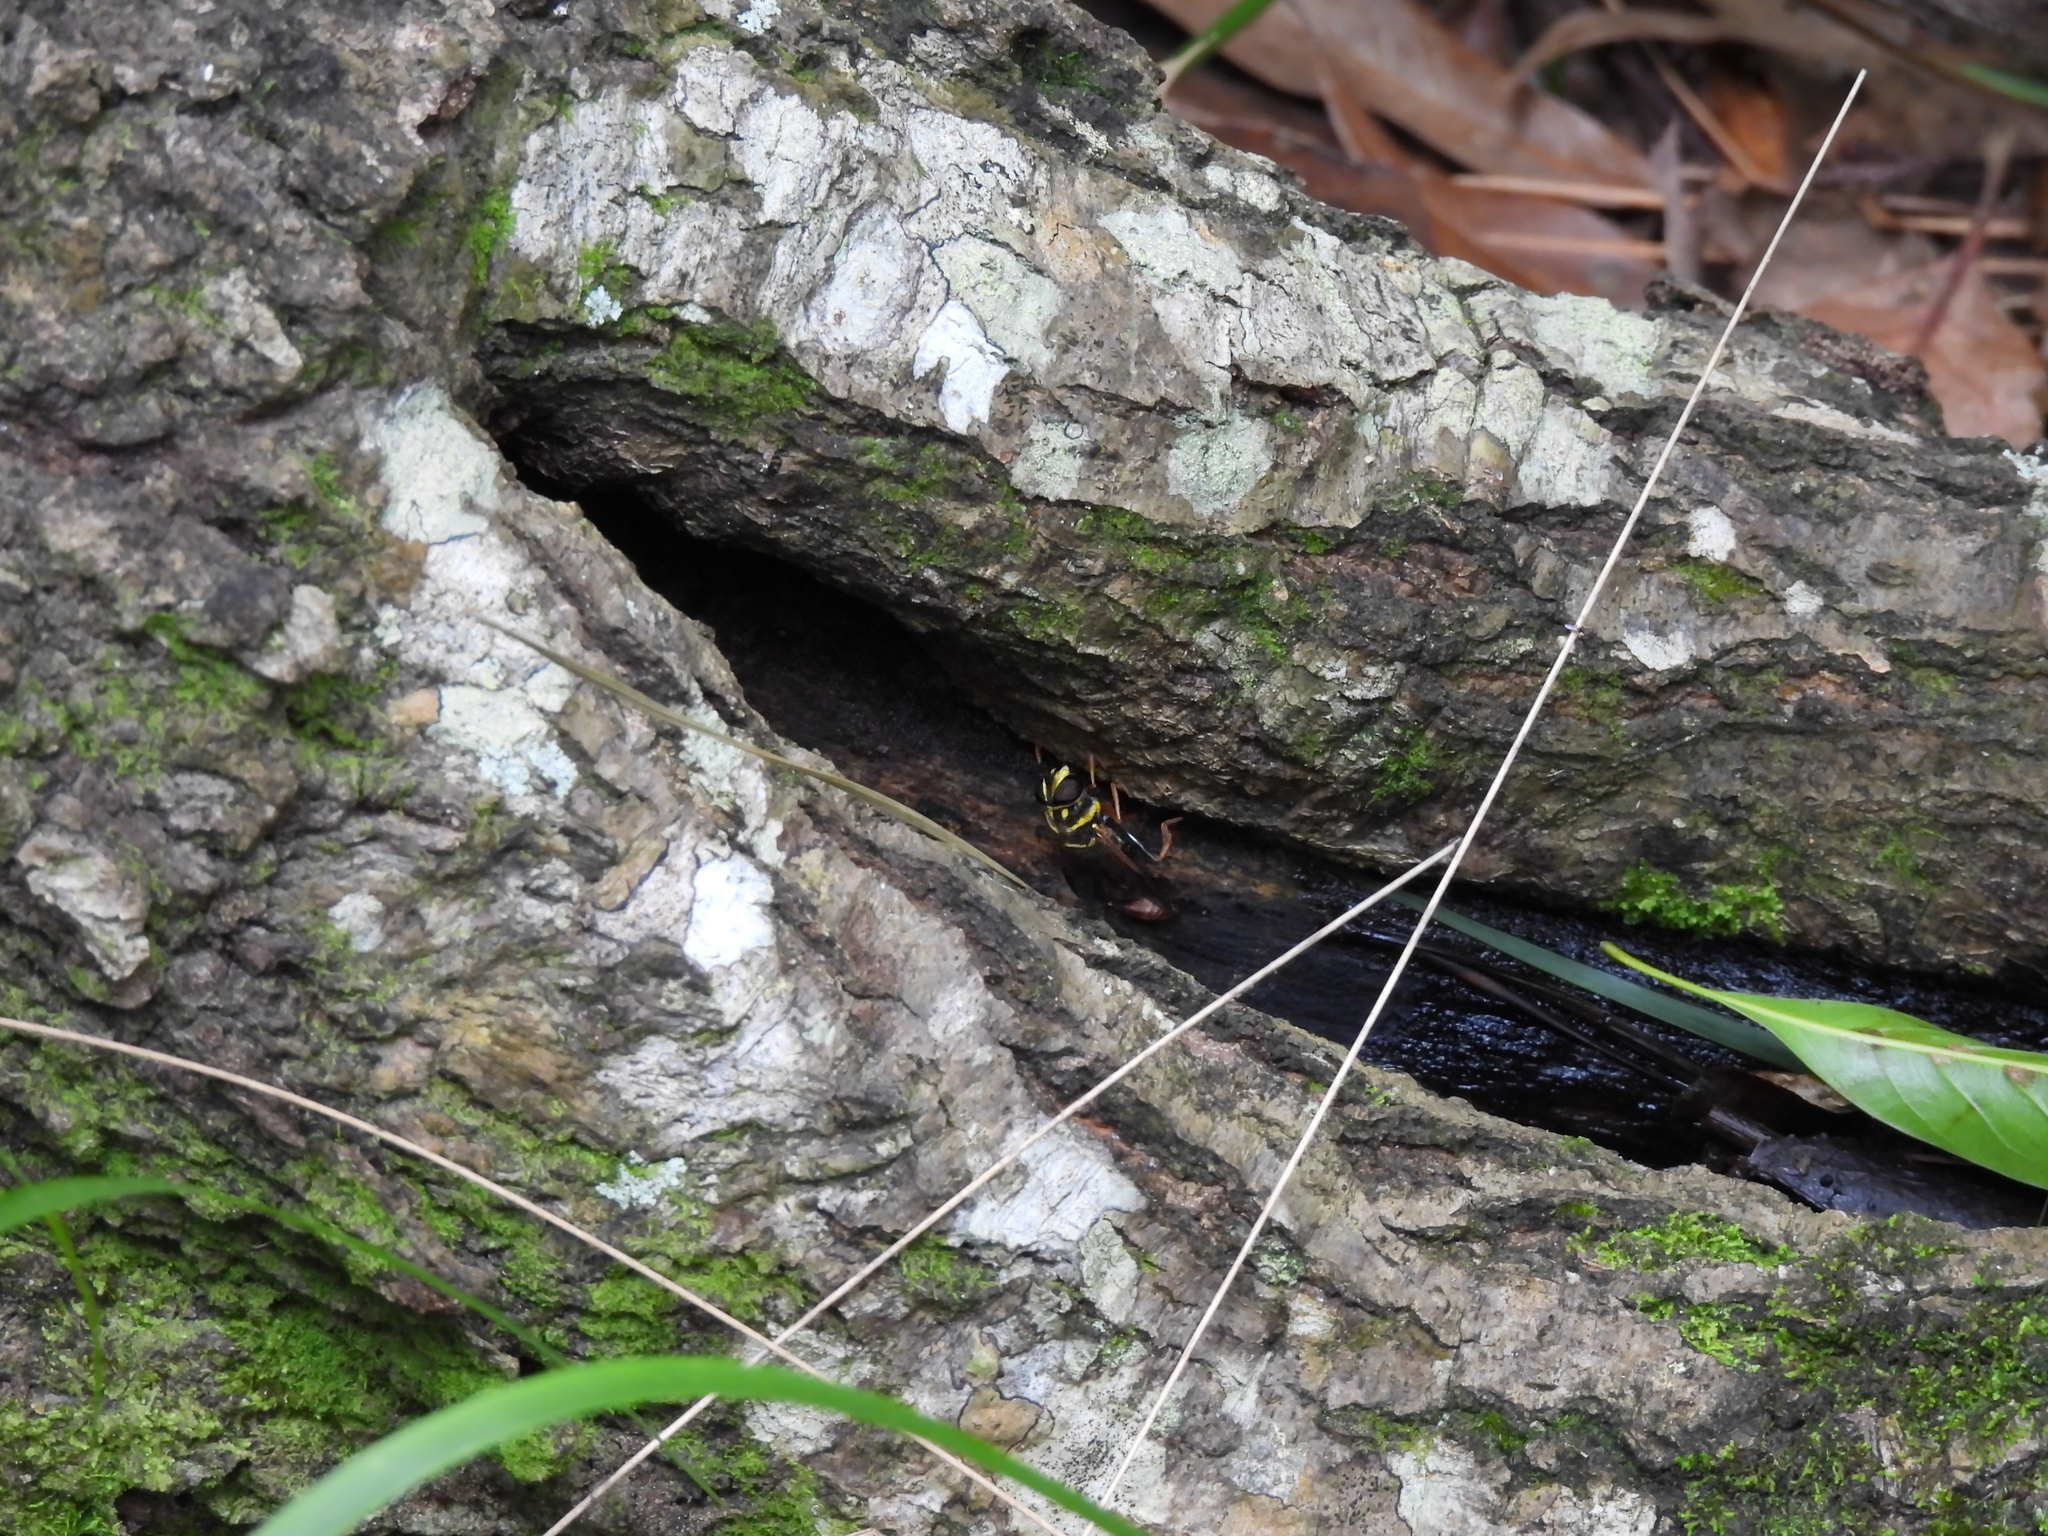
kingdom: Animalia
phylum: Arthropoda
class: Insecta
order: Diptera
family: Syrphidae
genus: Meromacrus
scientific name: Meromacrus acutus
